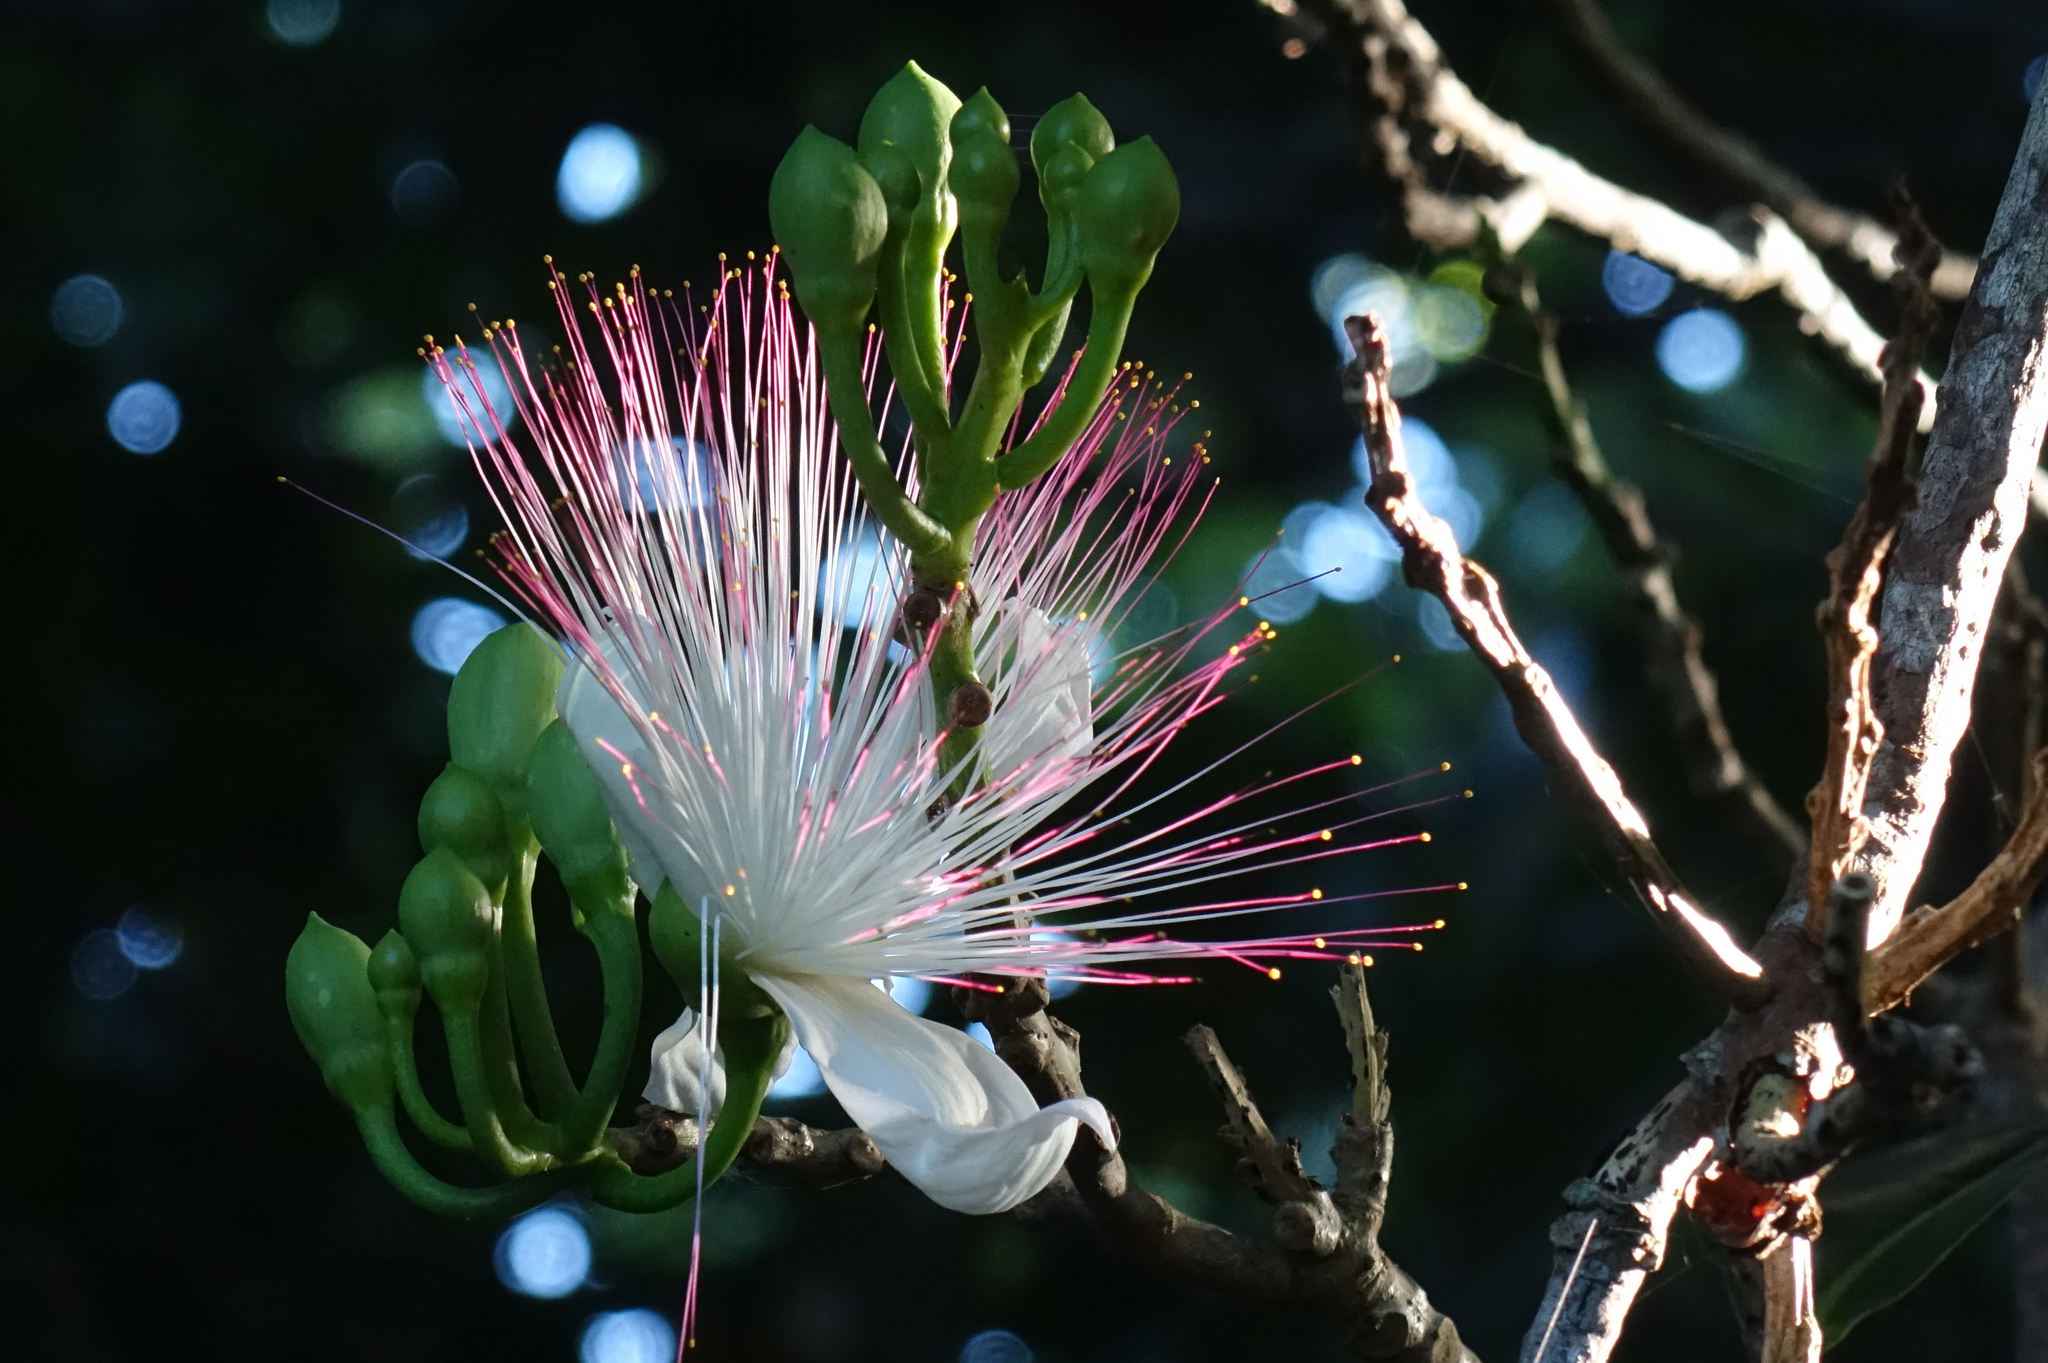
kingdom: Plantae
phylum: Tracheophyta
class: Magnoliopsida
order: Ericales
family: Lecythidaceae
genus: Barringtonia
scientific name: Barringtonia asiatica
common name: Mango-pine
